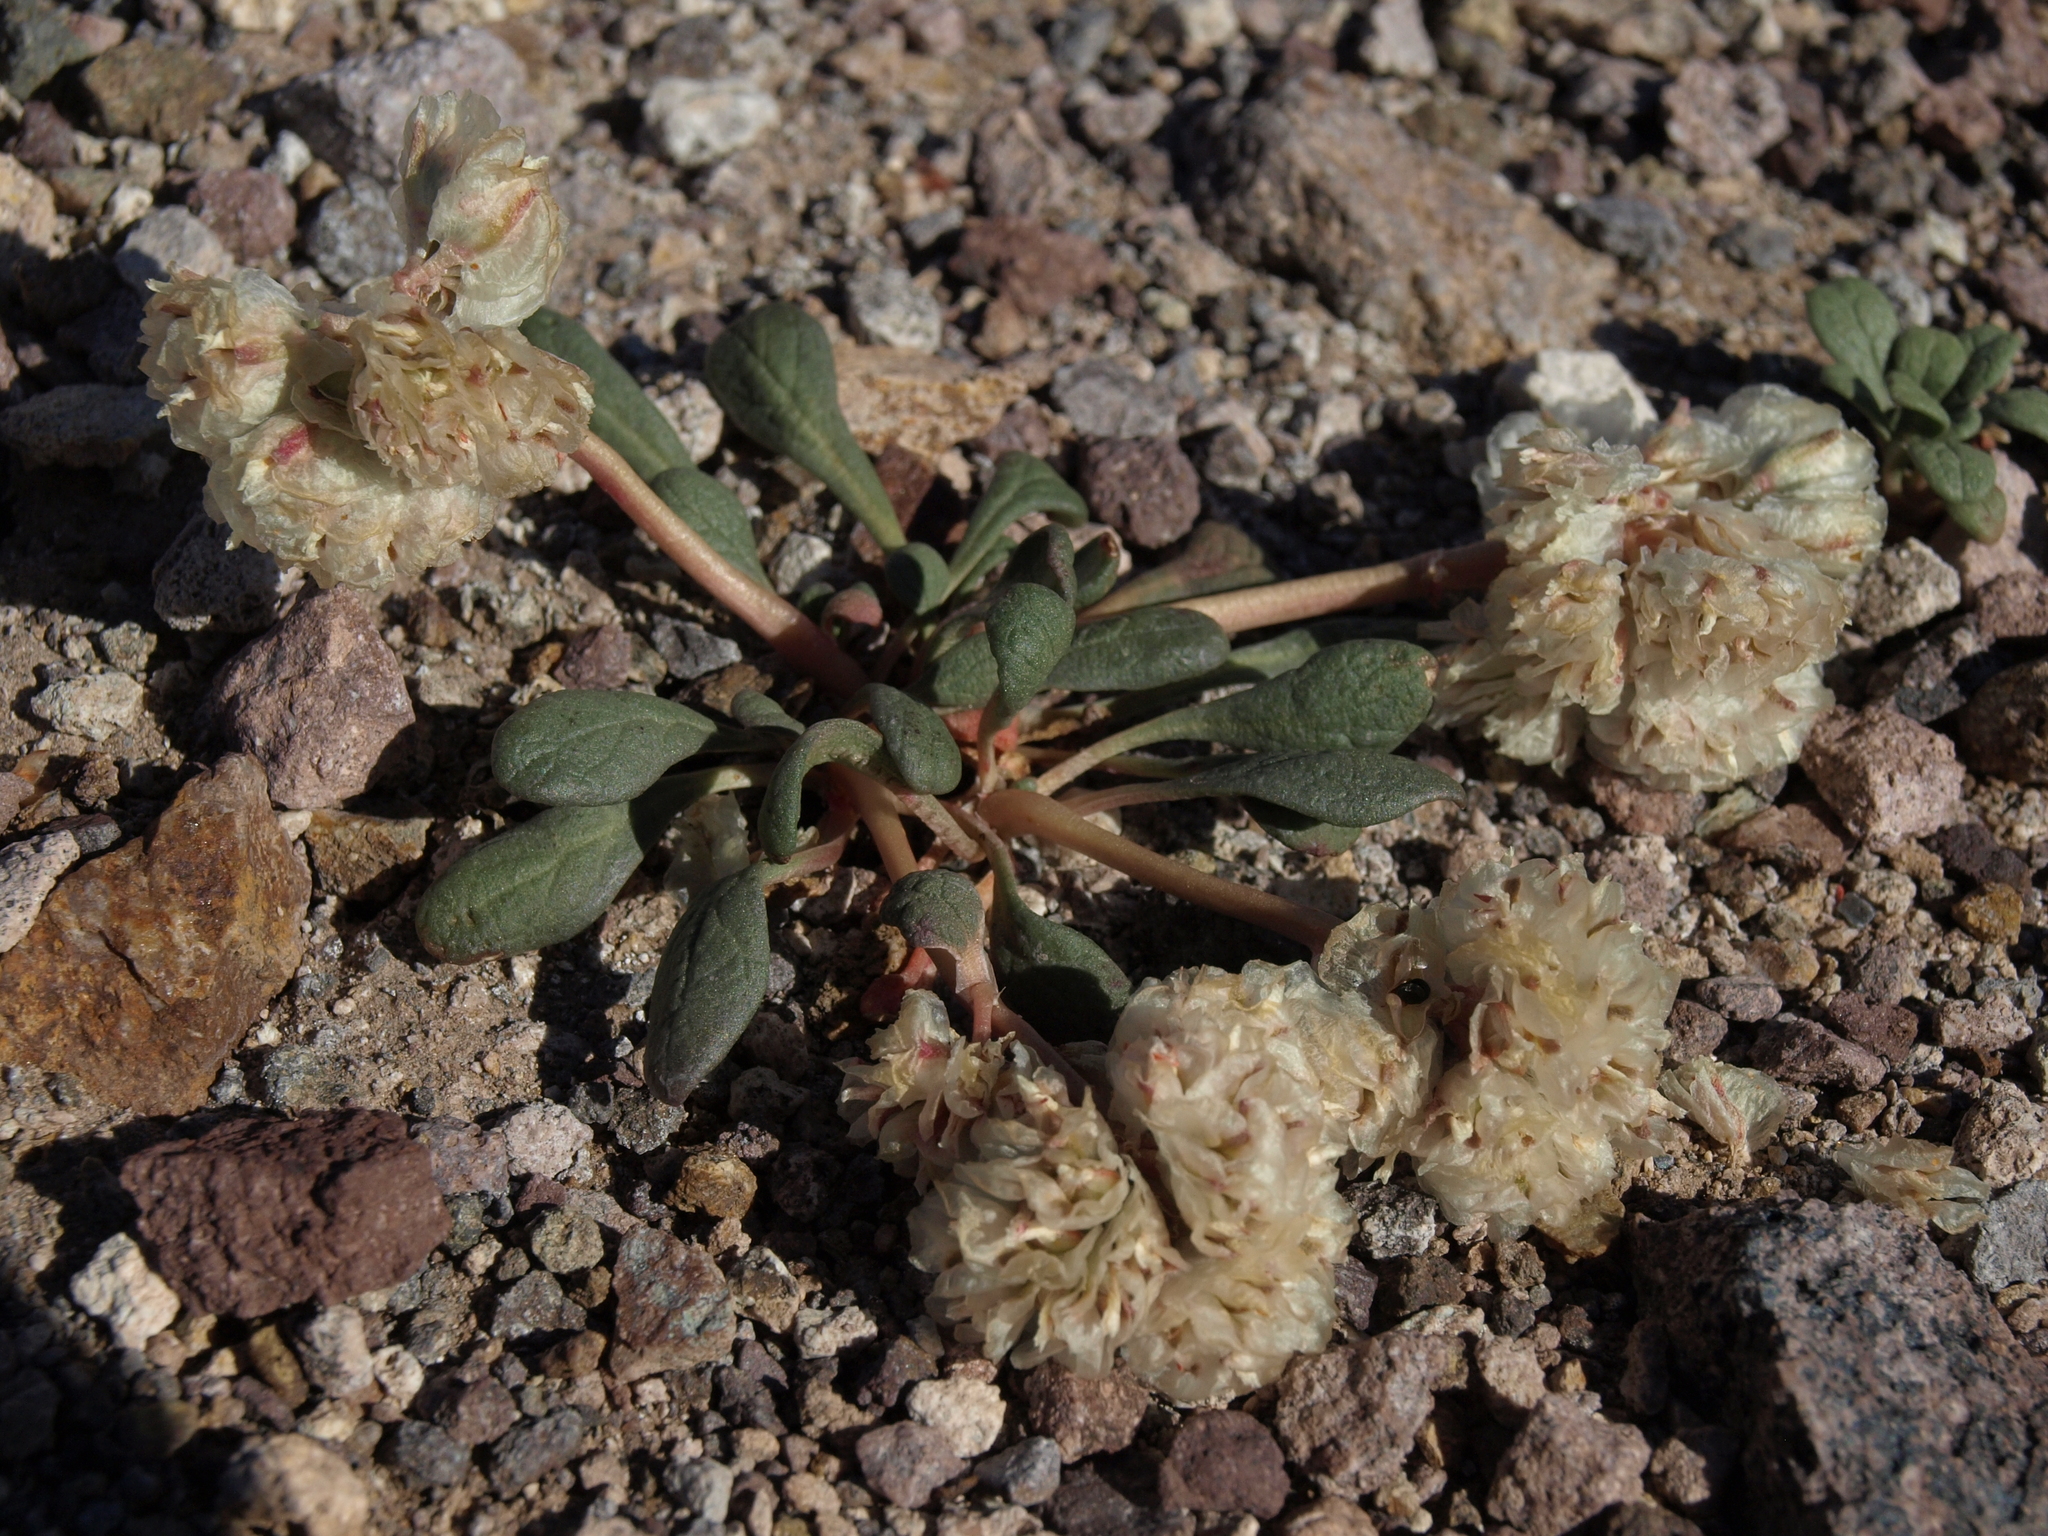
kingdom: Plantae
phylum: Tracheophyta
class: Magnoliopsida
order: Caryophyllales
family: Montiaceae
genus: Calyptridium
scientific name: Calyptridium umbellatum
